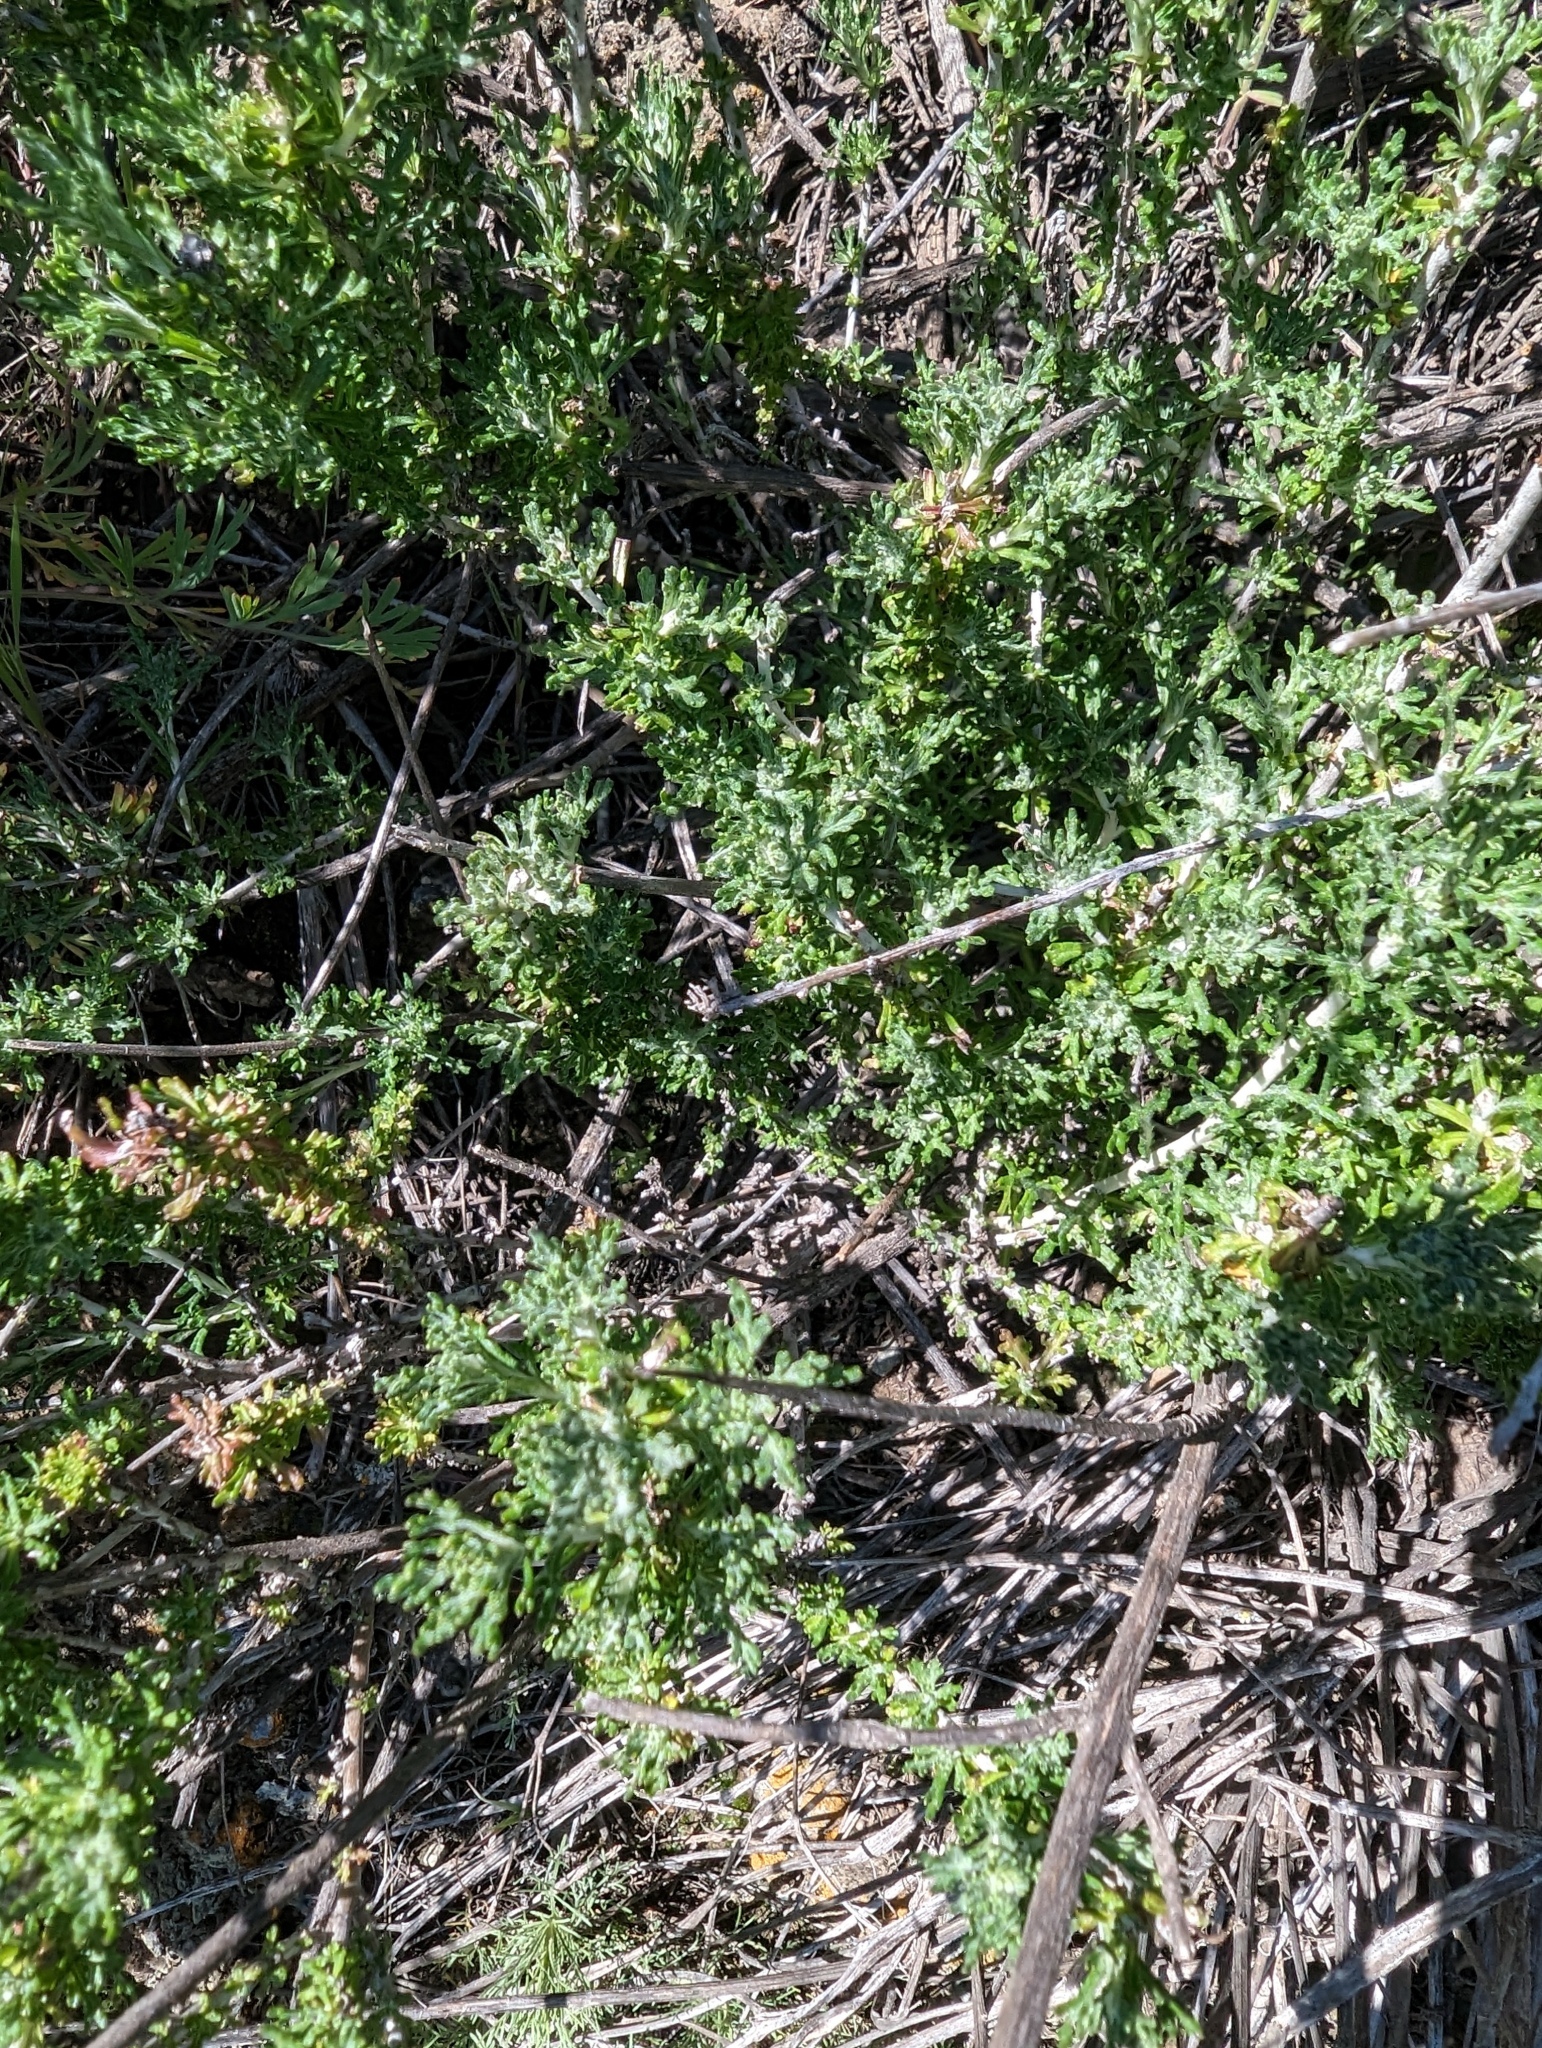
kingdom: Plantae
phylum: Tracheophyta
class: Magnoliopsida
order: Asterales
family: Asteraceae
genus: Eriophyllum
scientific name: Eriophyllum confertiflorum
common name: Golden-yarrow
